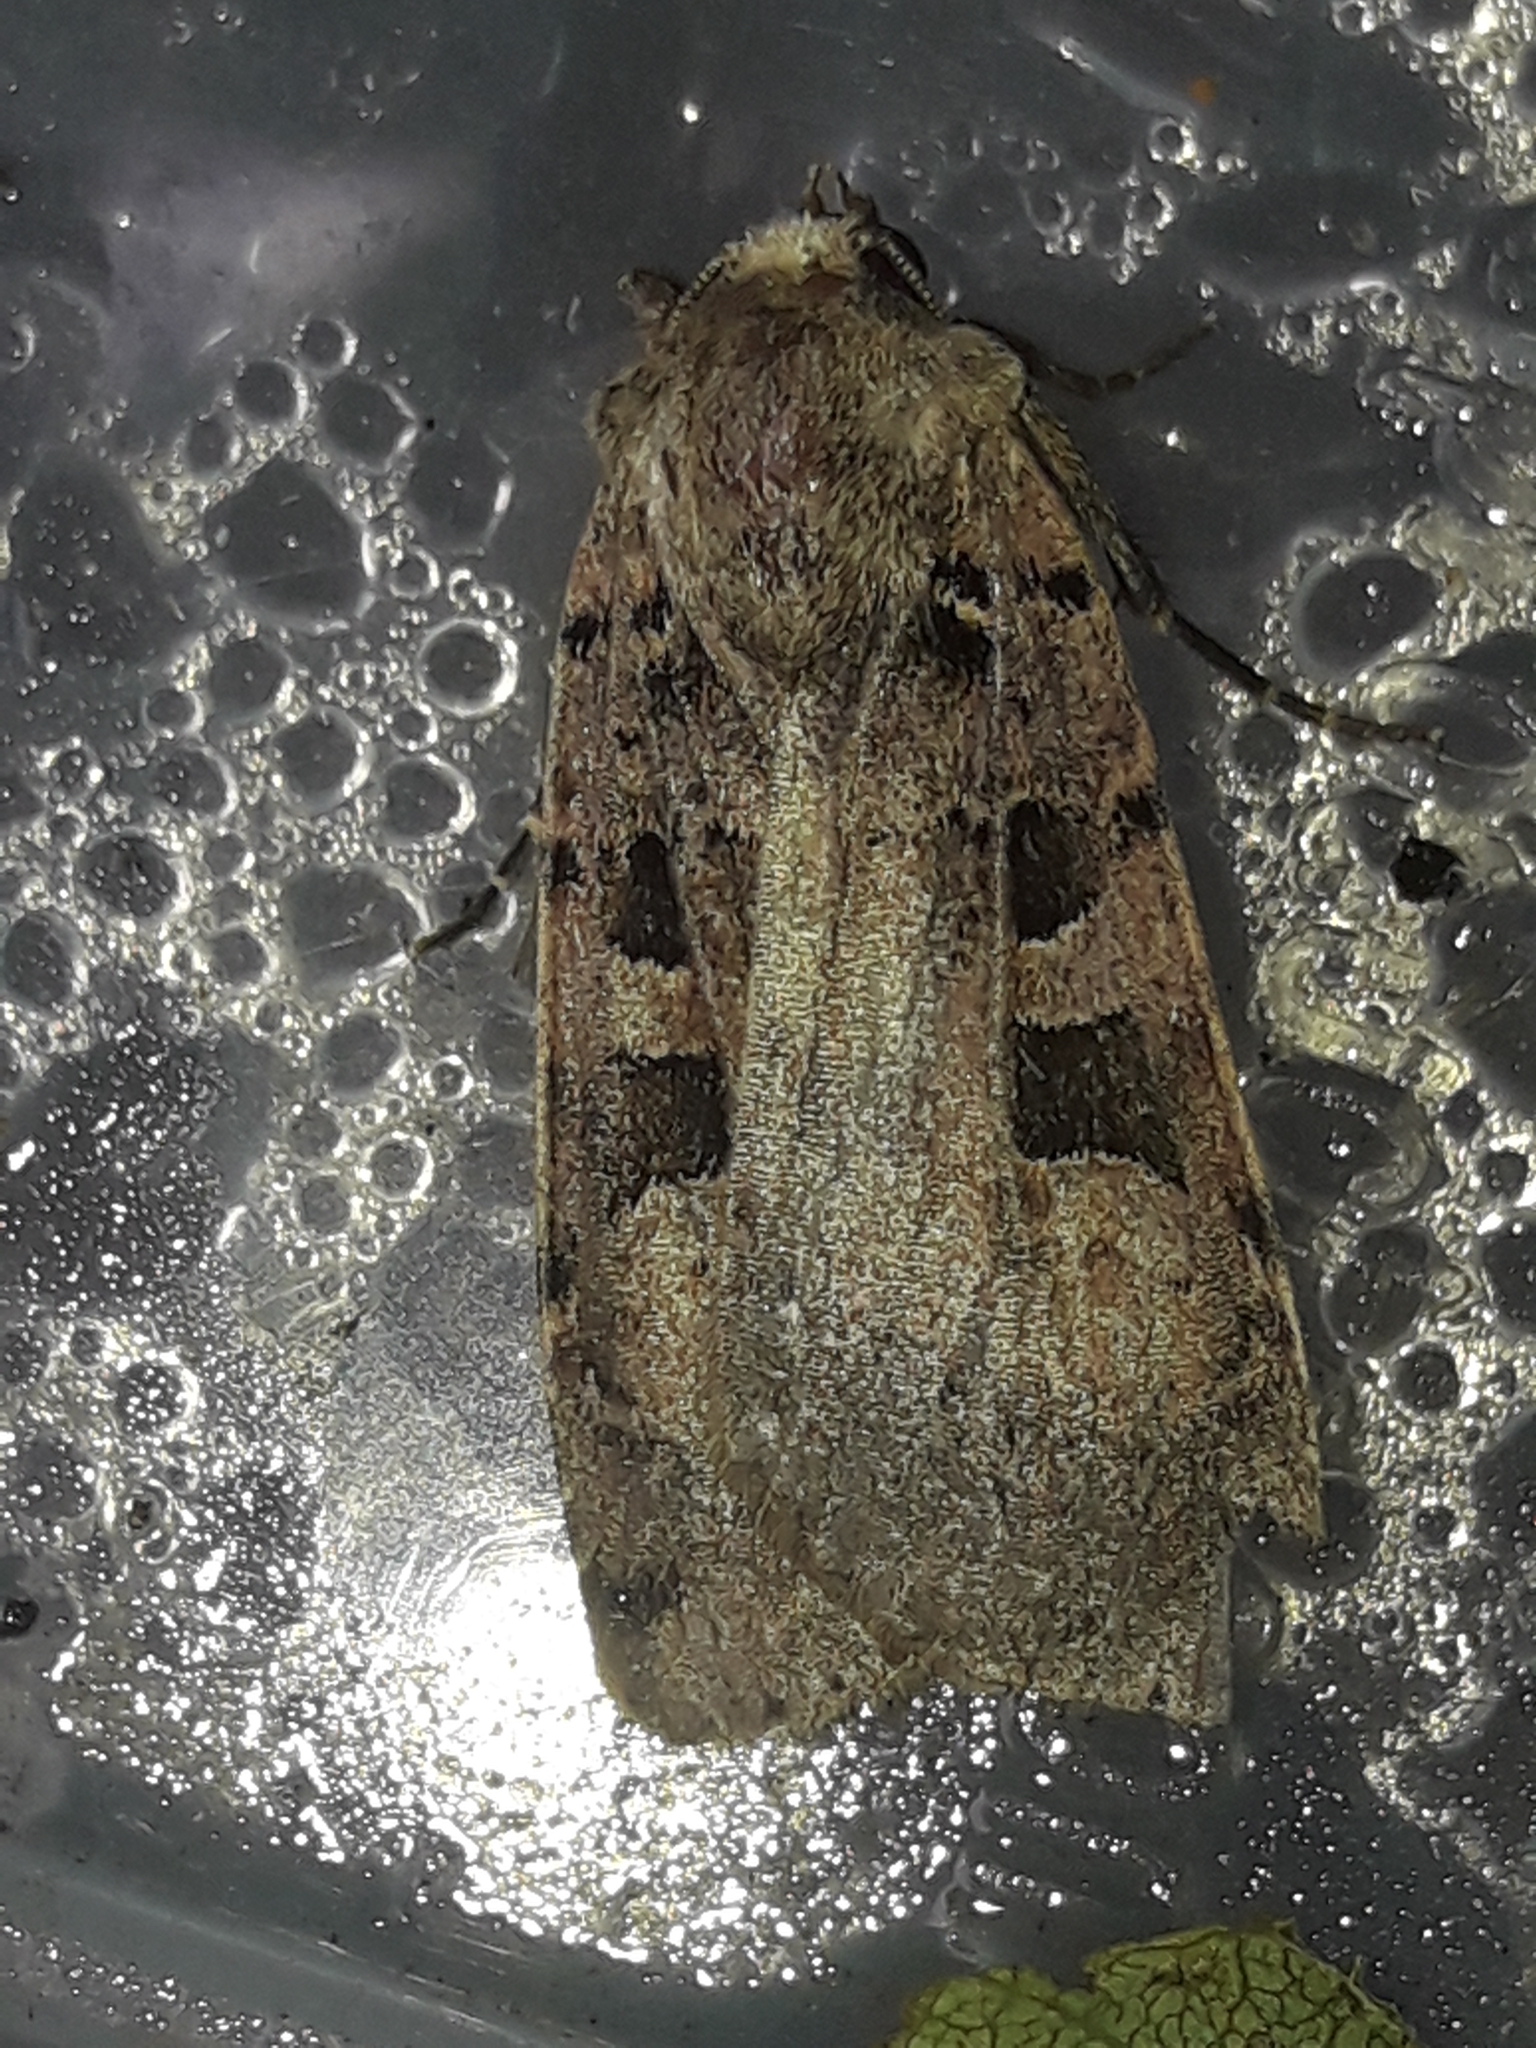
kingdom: Animalia
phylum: Arthropoda
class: Insecta
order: Lepidoptera
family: Noctuidae
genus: Xestia
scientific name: Xestia triangulum
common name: Double square-spot
